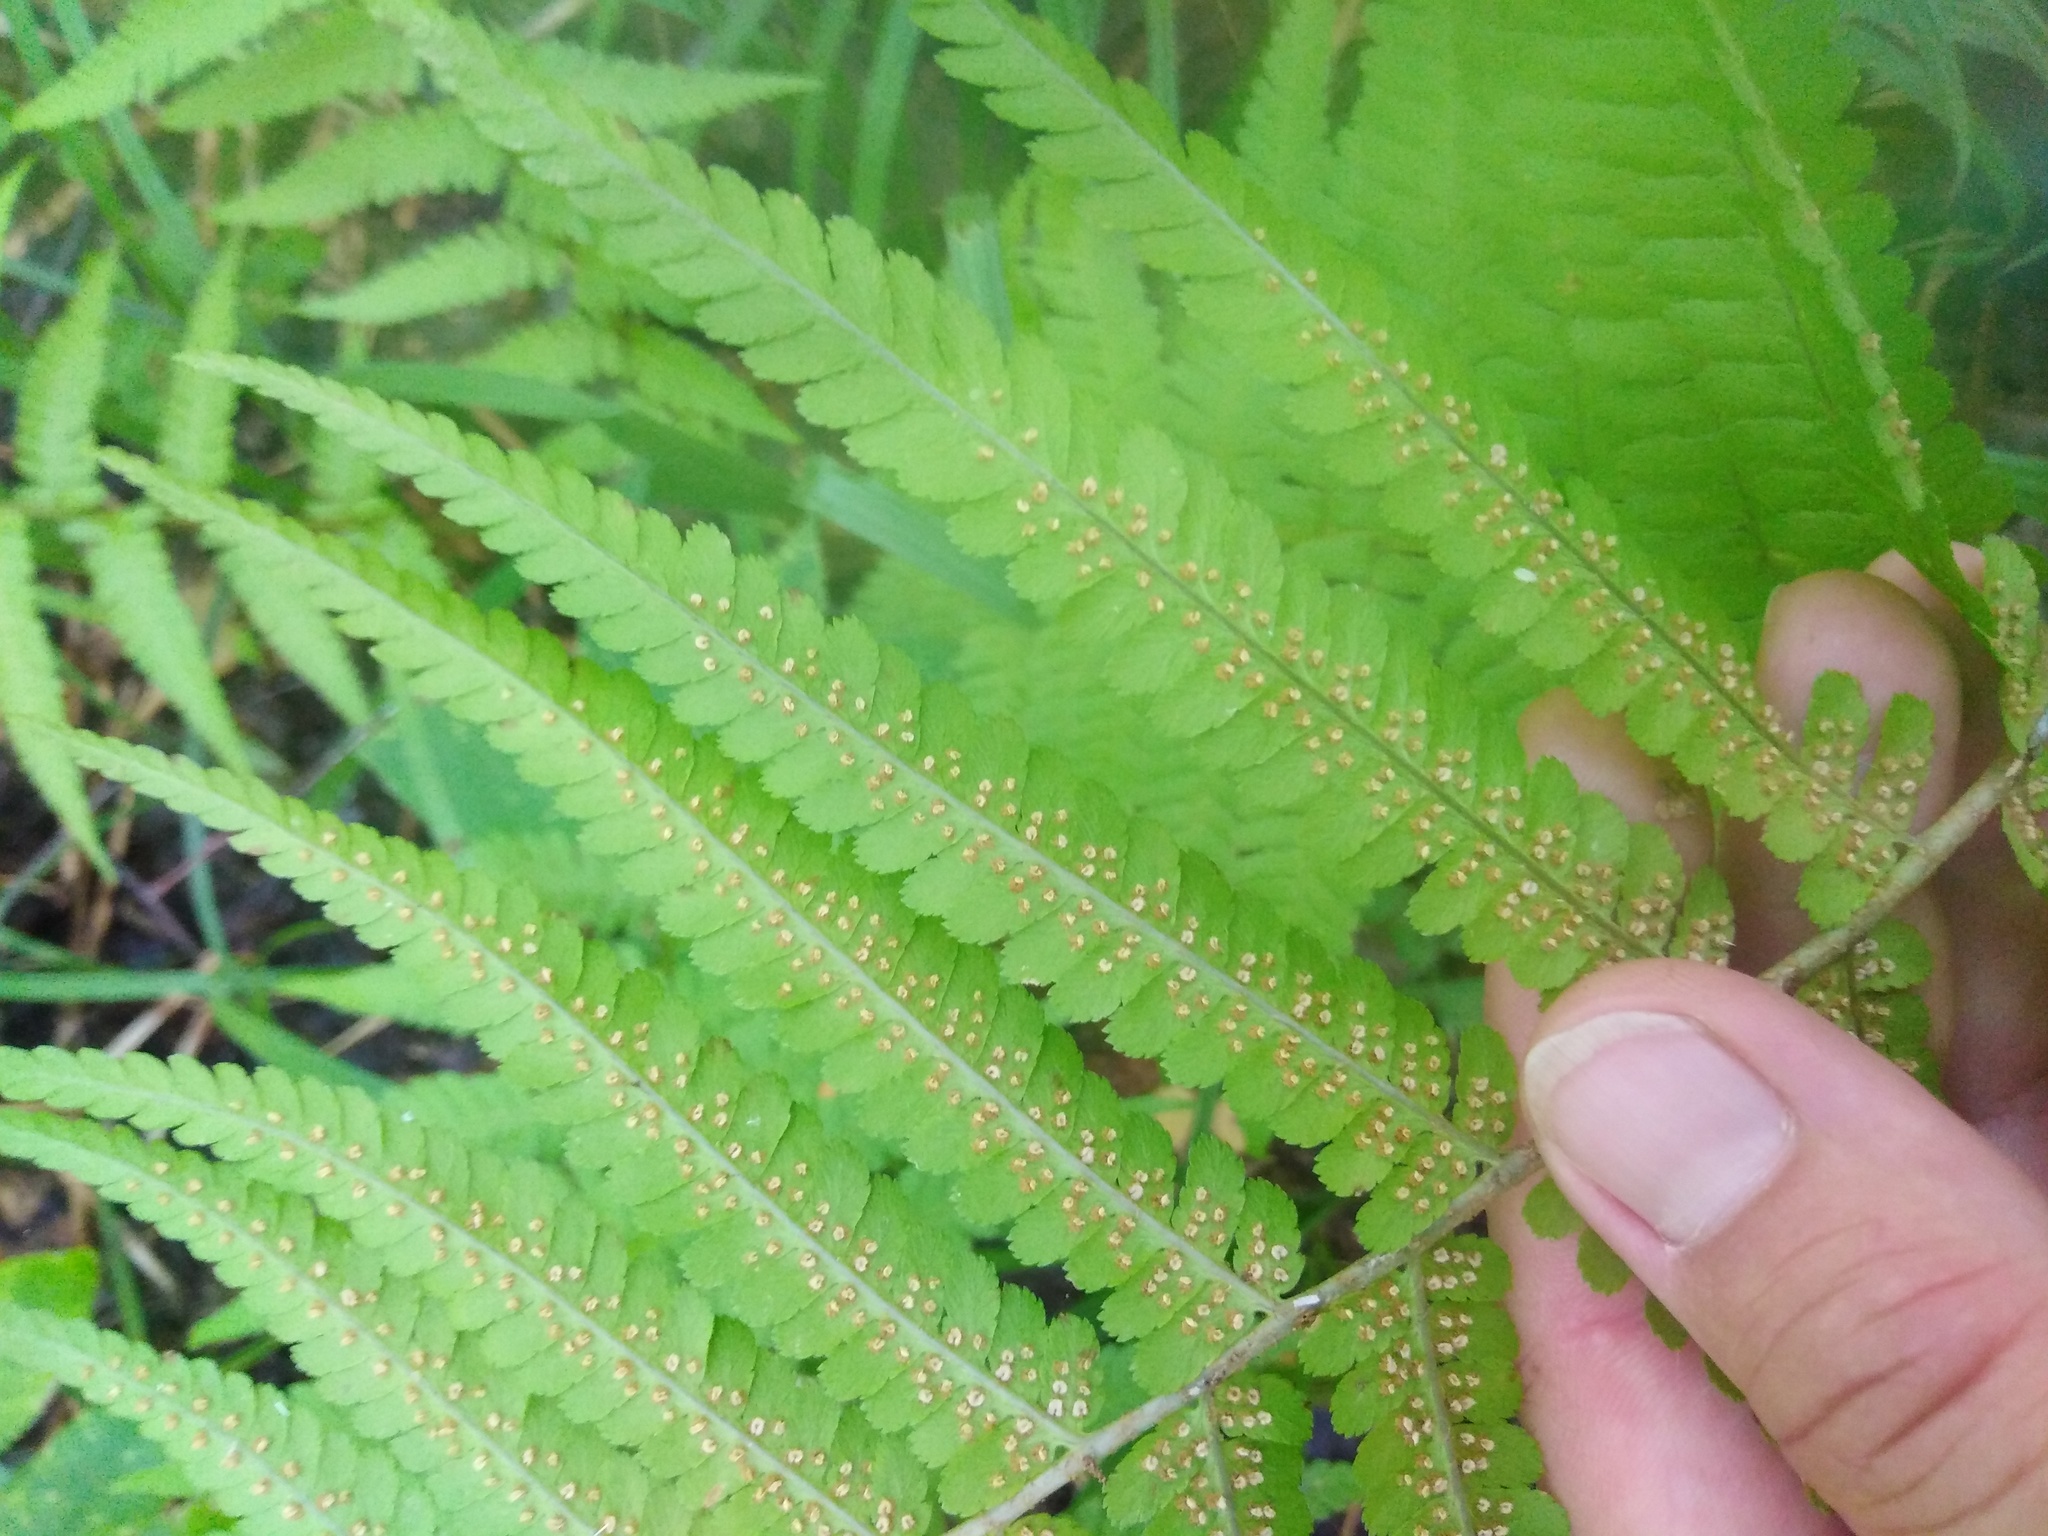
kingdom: Plantae
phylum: Tracheophyta
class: Polypodiopsida
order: Polypodiales
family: Dryopteridaceae
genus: Dryopteris
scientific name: Dryopteris filix-mas
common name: Male fern
